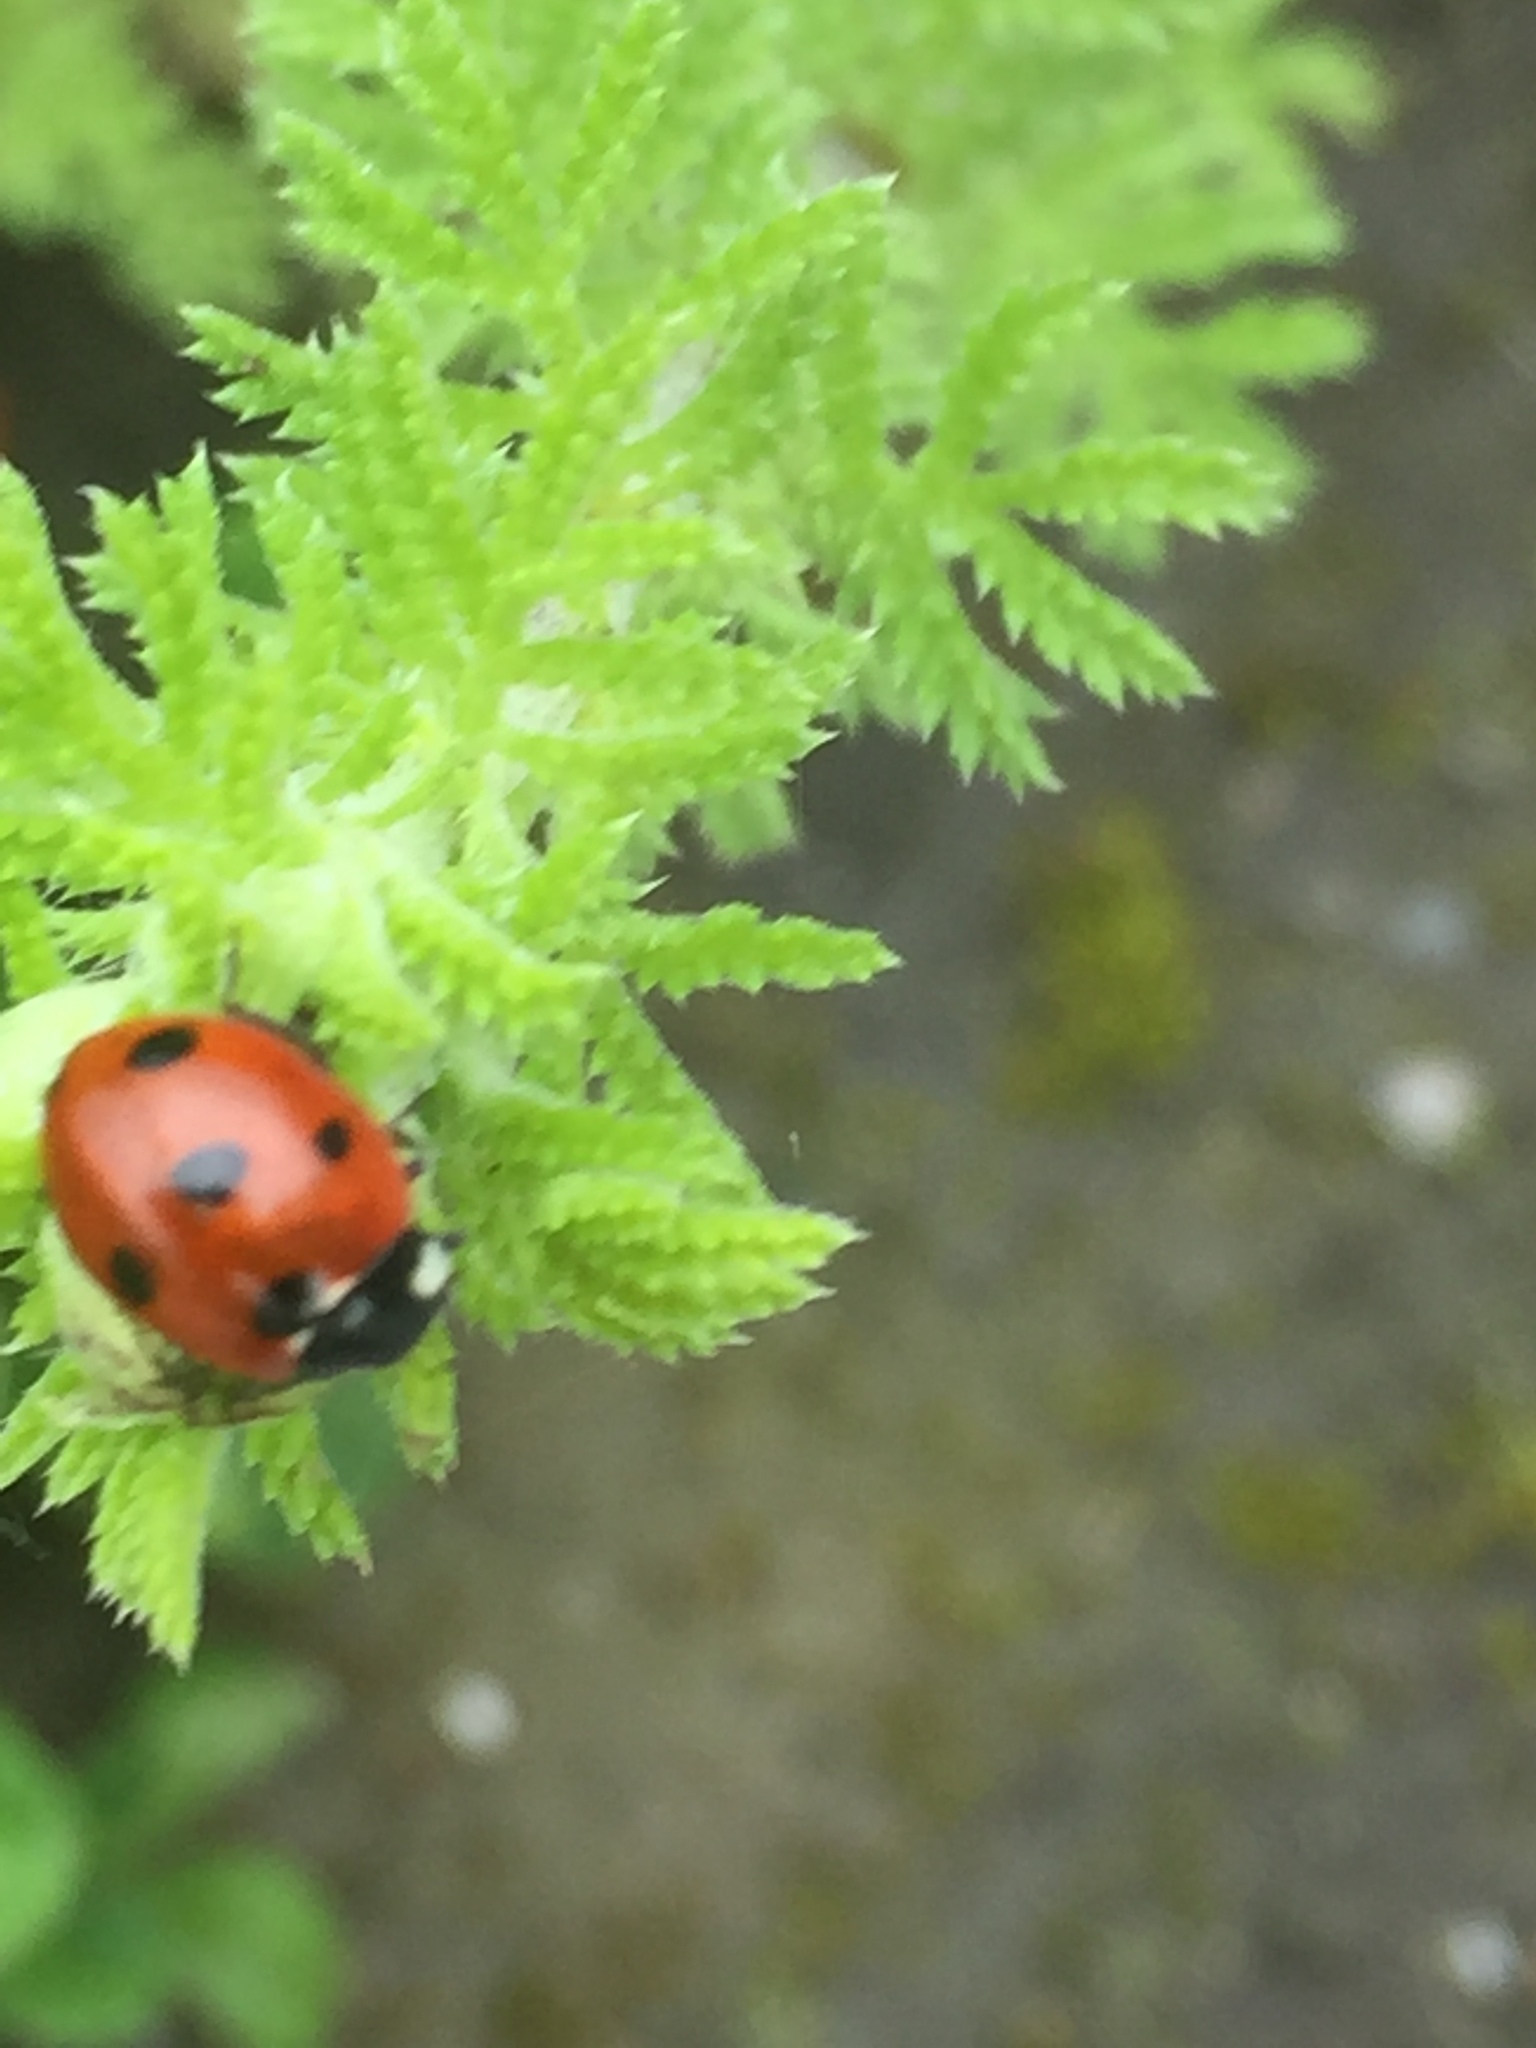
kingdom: Animalia
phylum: Arthropoda
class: Insecta
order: Coleoptera
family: Coccinellidae
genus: Coccinella
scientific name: Coccinella septempunctata
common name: Sevenspotted lady beetle
